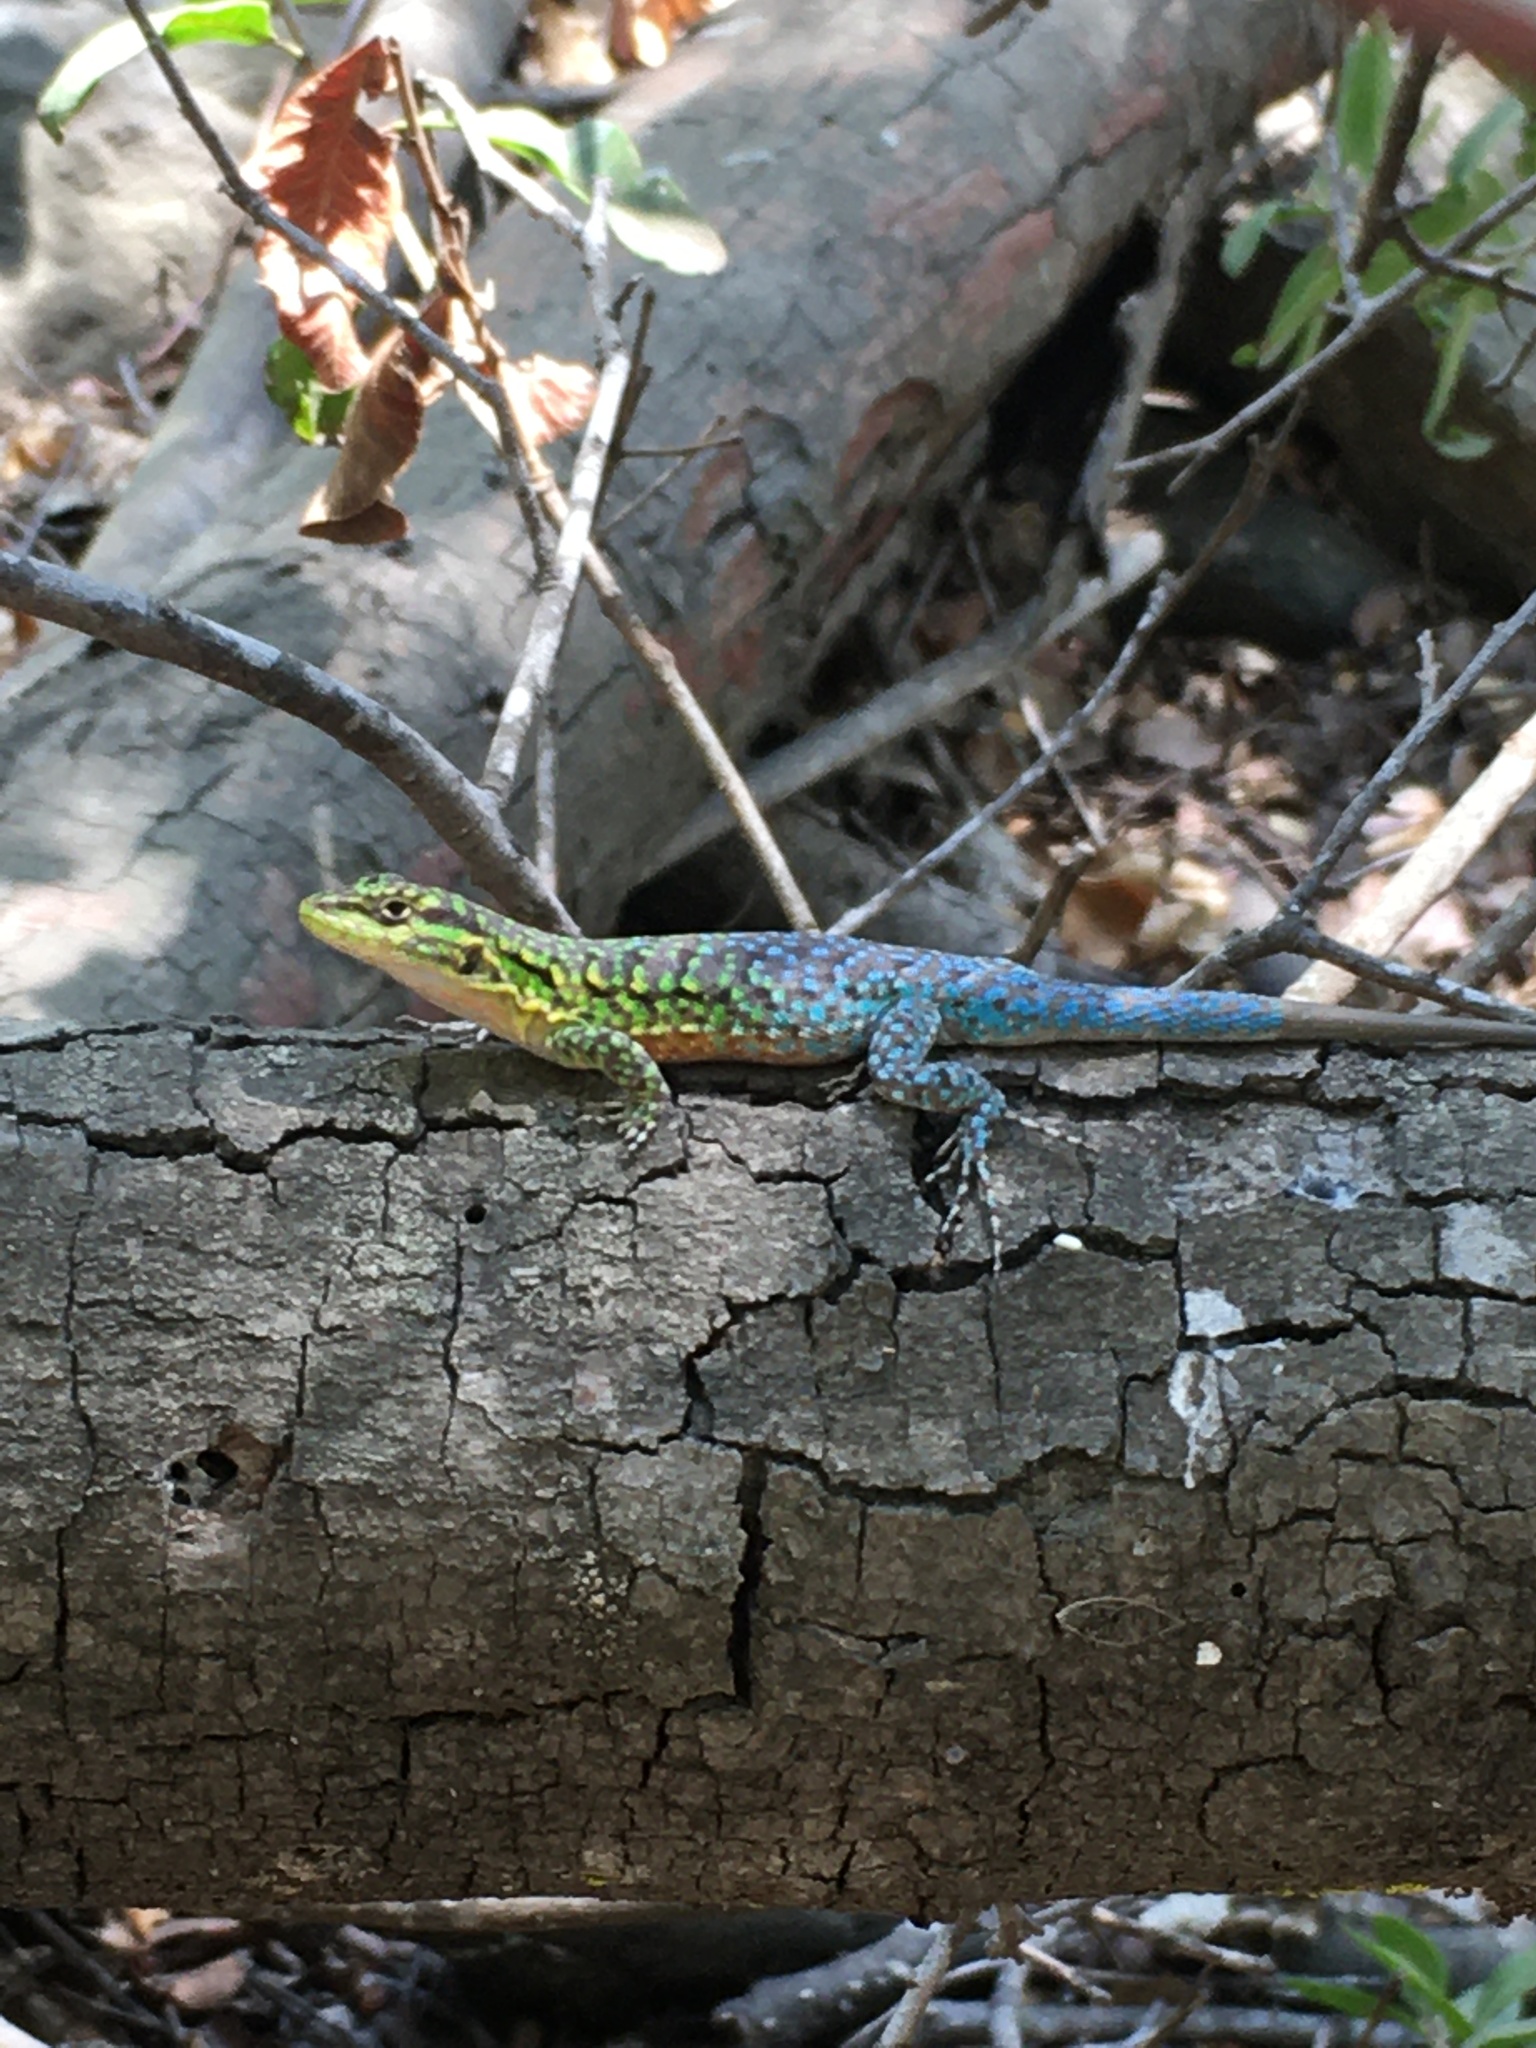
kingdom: Animalia
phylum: Chordata
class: Squamata
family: Liolaemidae
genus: Liolaemus
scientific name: Liolaemus tenuis
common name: Thin tree iguana
